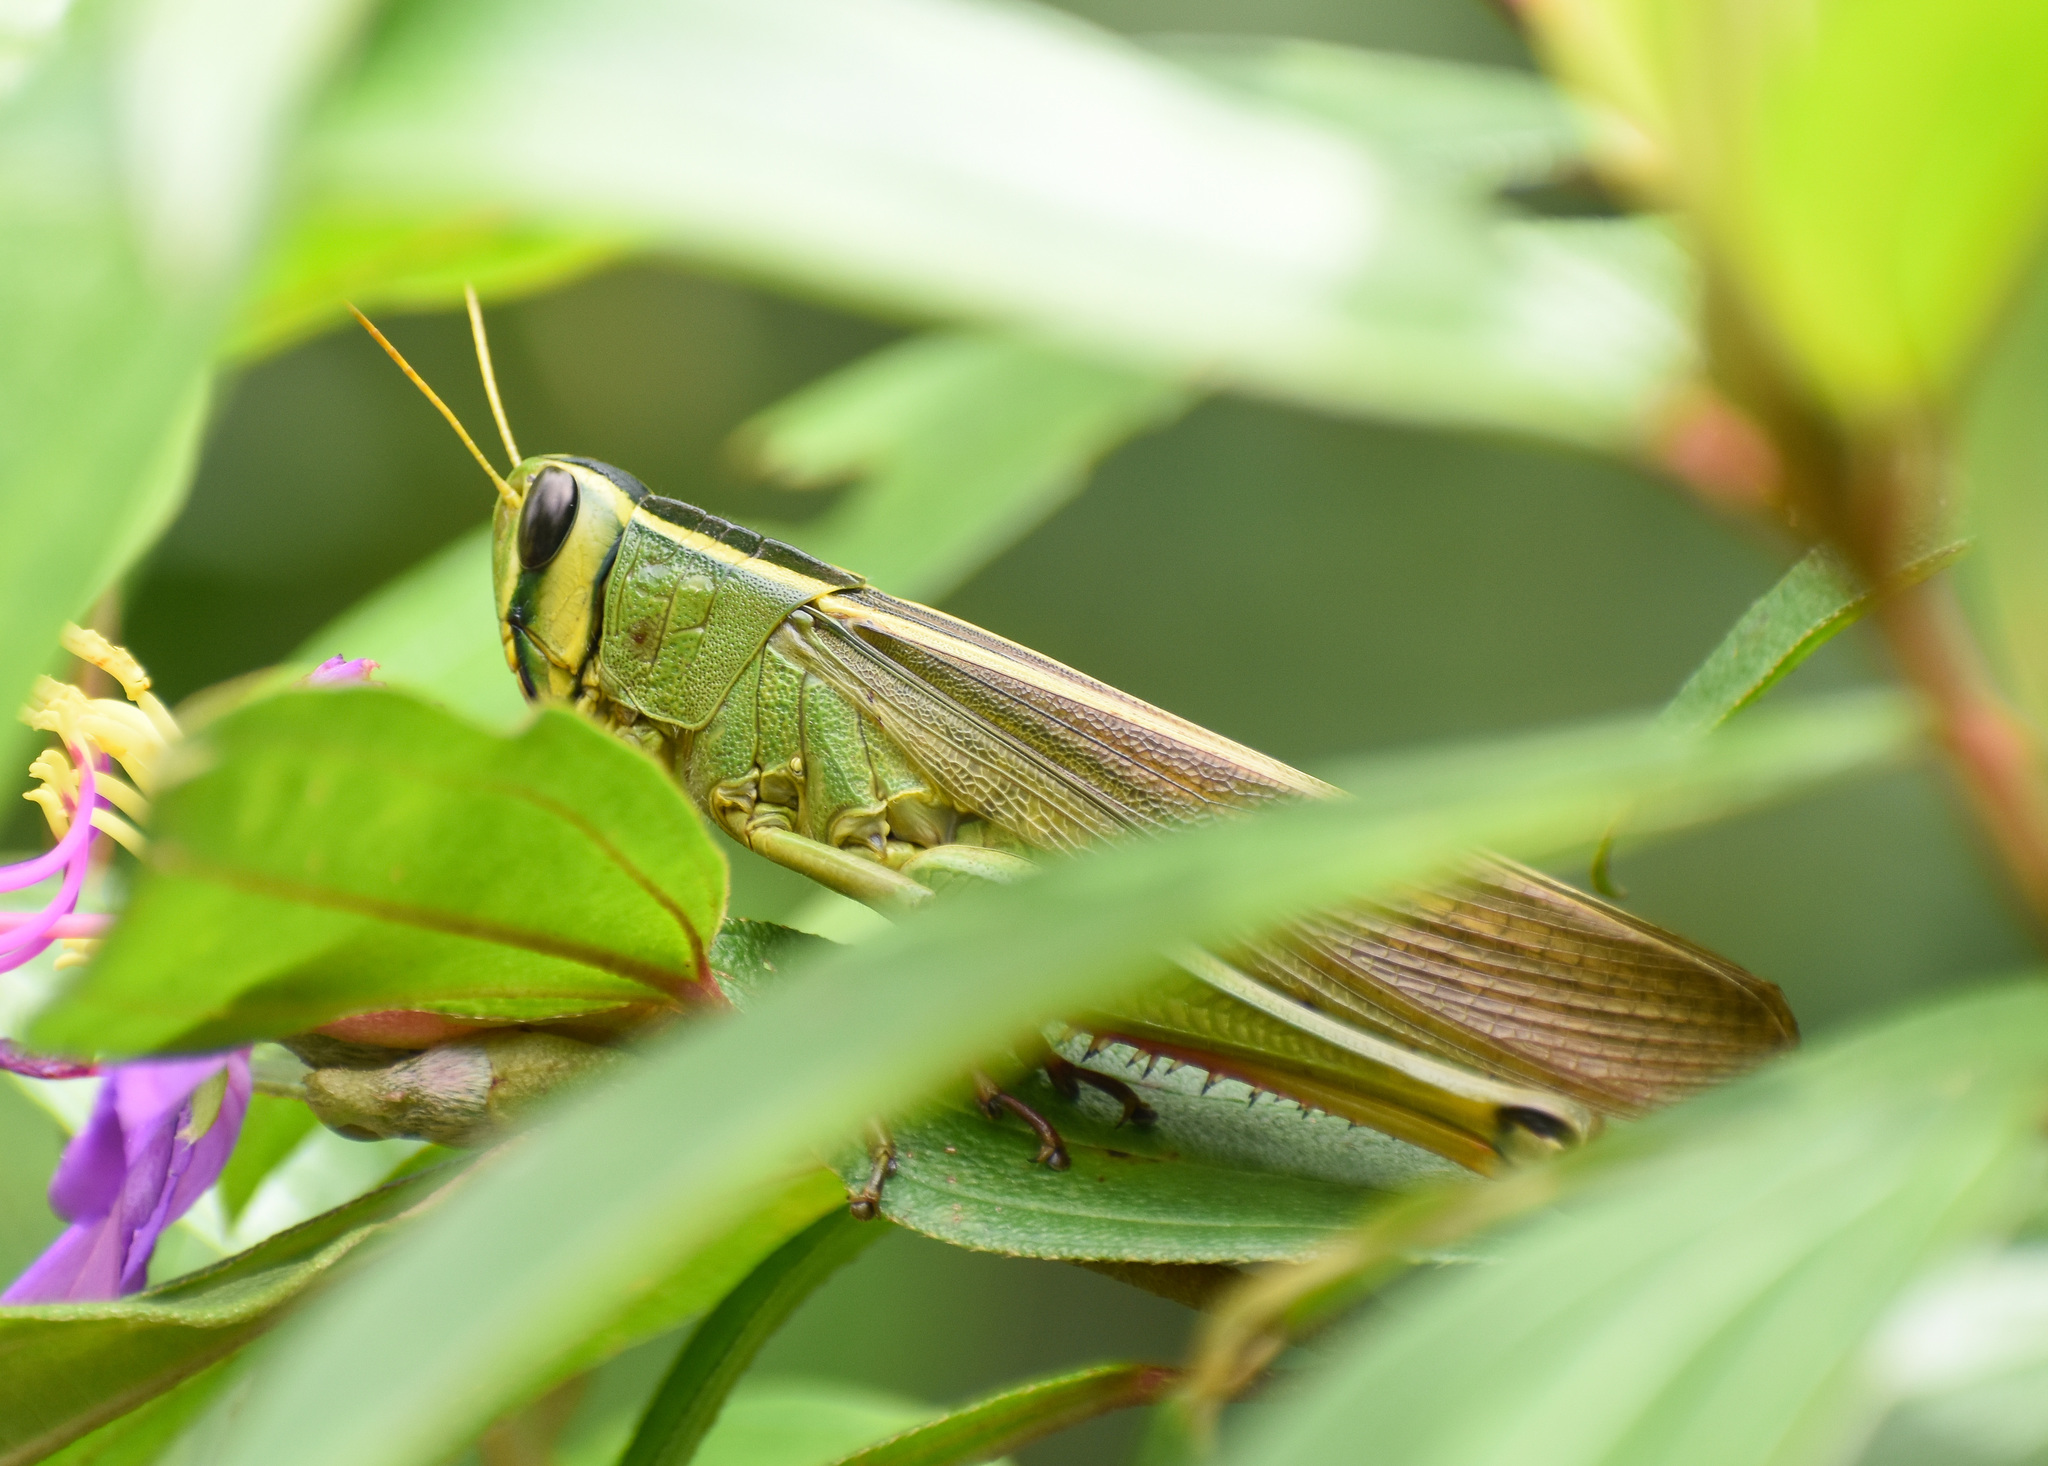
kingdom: Animalia
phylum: Arthropoda
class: Insecta
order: Orthoptera
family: Acrididae
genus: Choroedocus
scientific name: Choroedocus robustus
